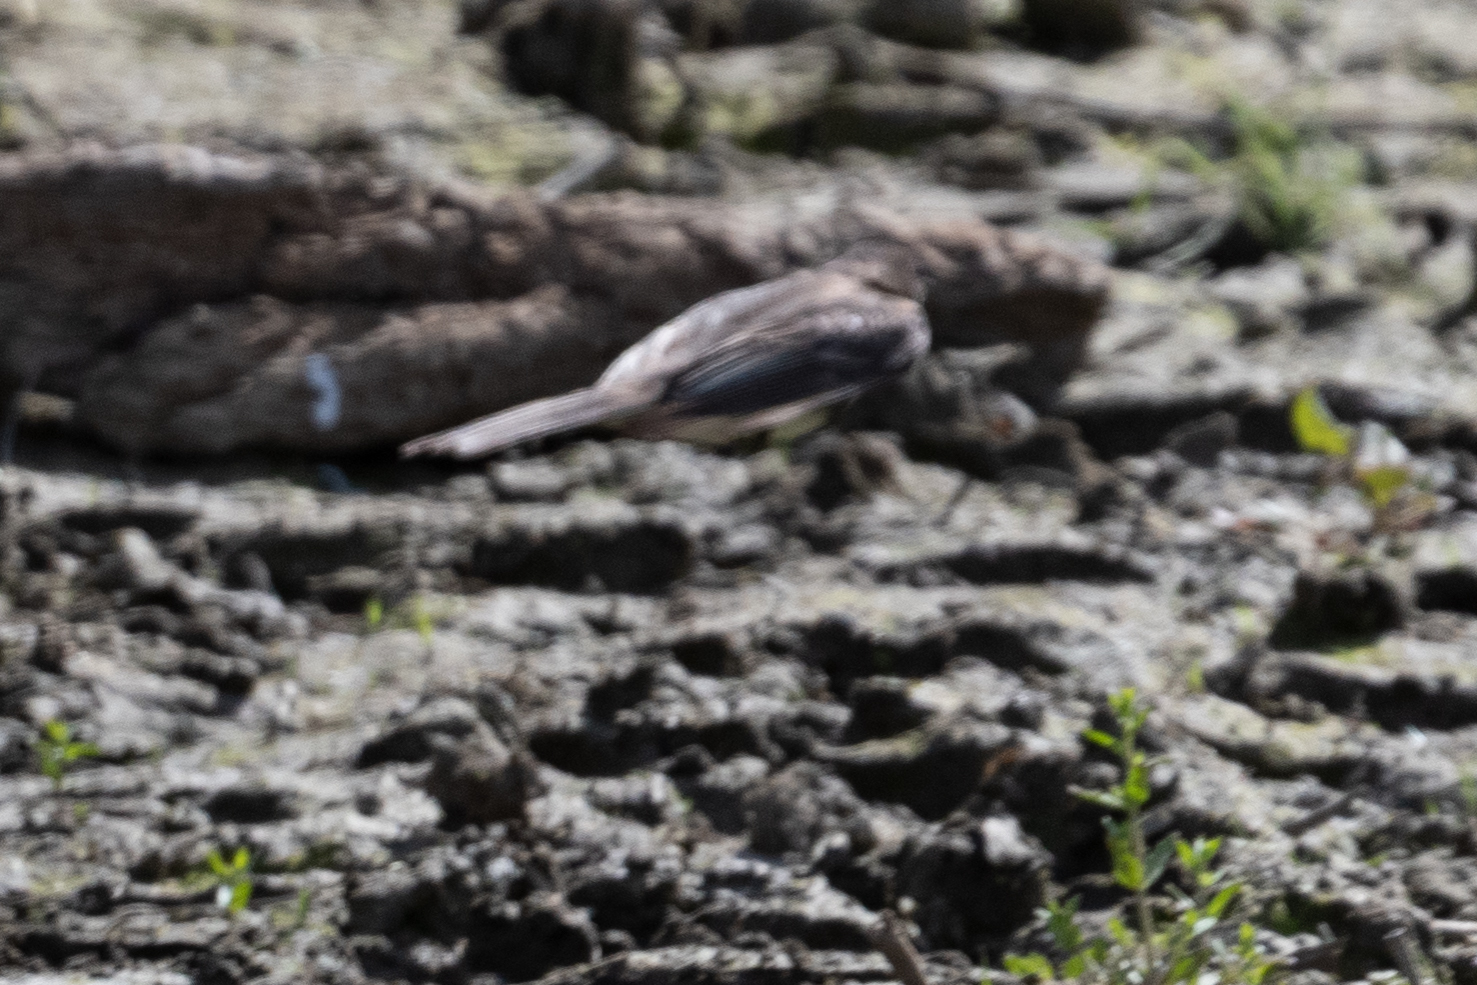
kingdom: Animalia
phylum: Chordata
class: Aves
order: Passeriformes
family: Tyrannidae
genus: Sayornis
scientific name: Sayornis nigricans
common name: Black phoebe
